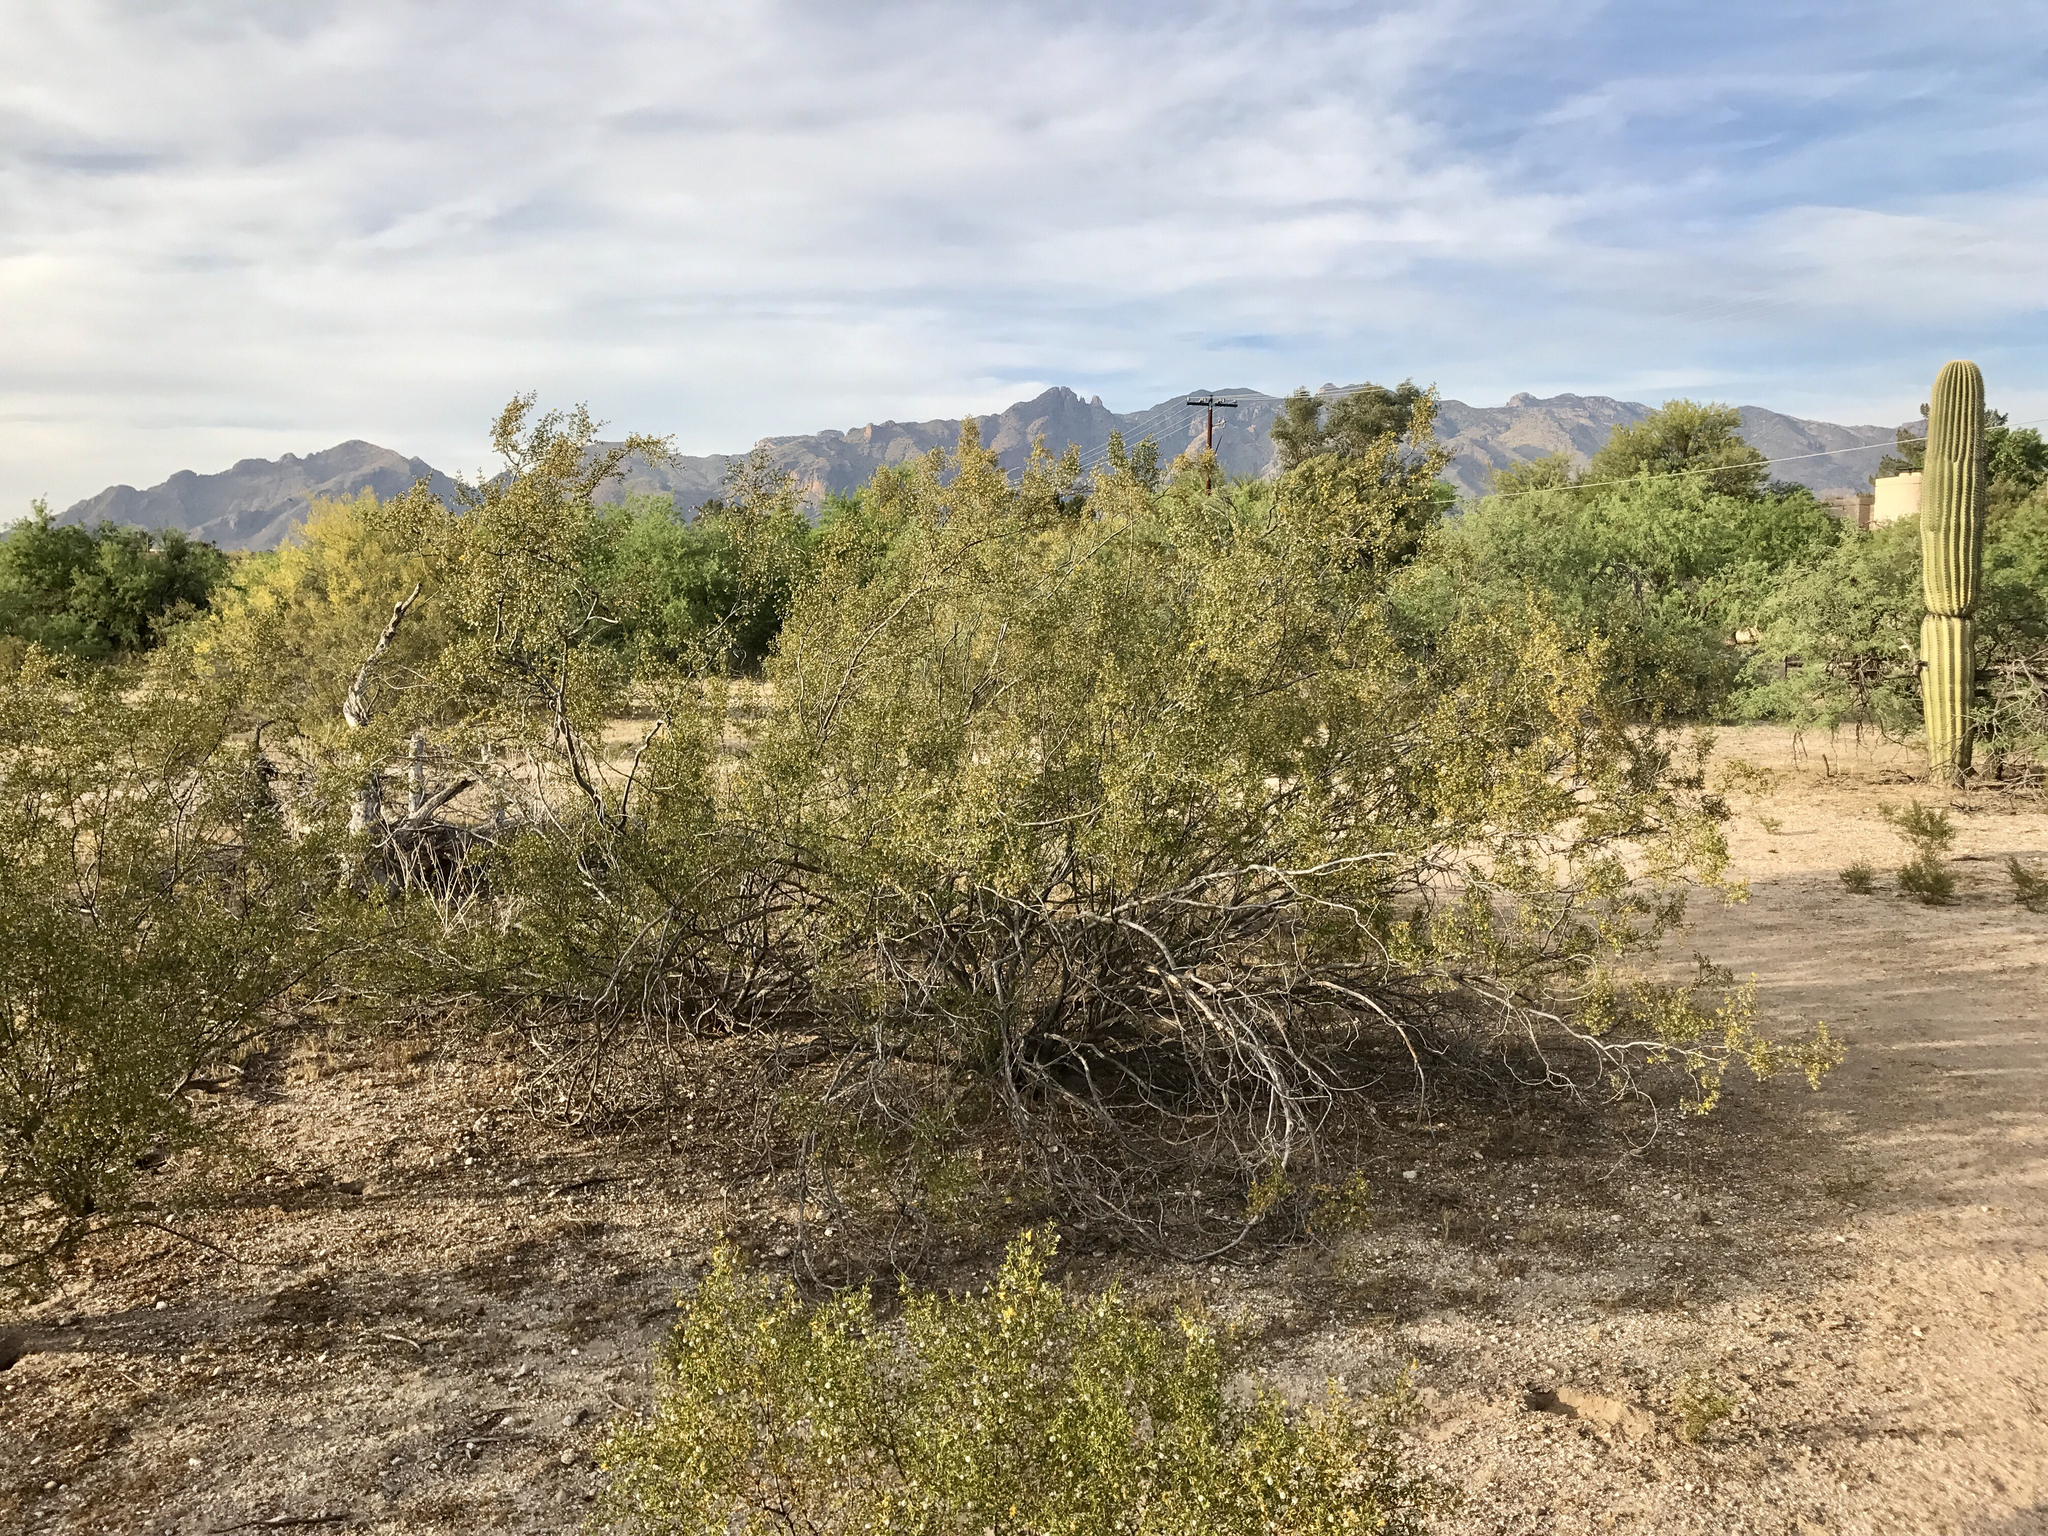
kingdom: Plantae
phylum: Tracheophyta
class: Magnoliopsida
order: Zygophyllales
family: Zygophyllaceae
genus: Larrea
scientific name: Larrea tridentata
